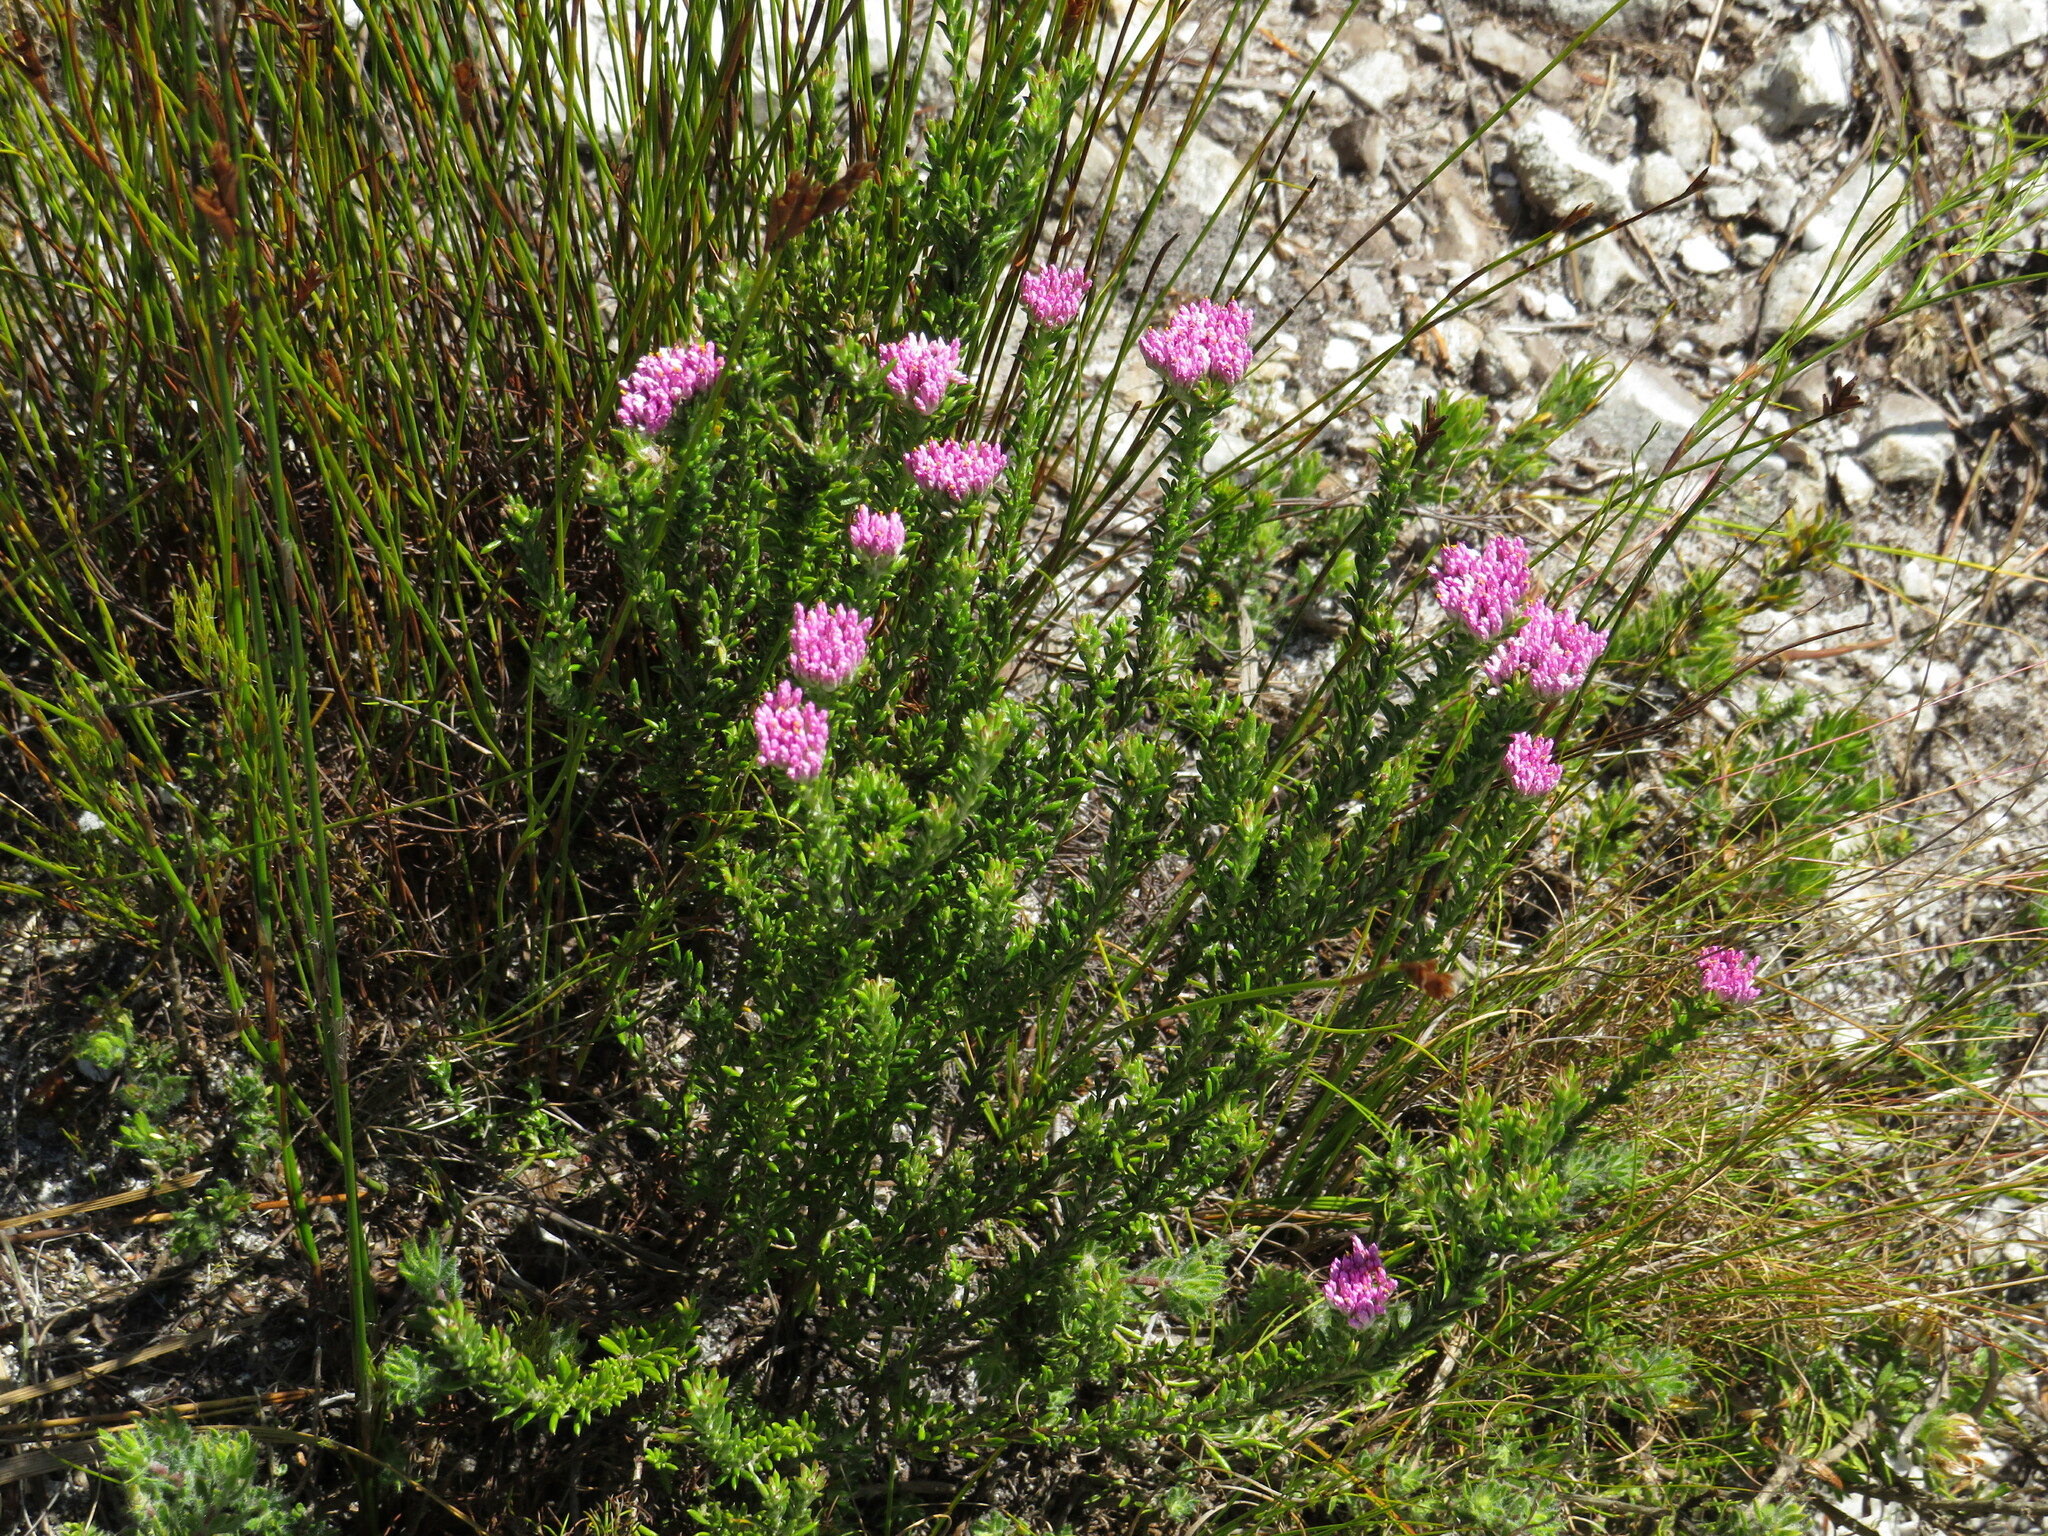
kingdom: Plantae
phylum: Tracheophyta
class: Magnoliopsida
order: Asterales
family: Asteraceae
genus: Metalasia
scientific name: Metalasia erubescens
